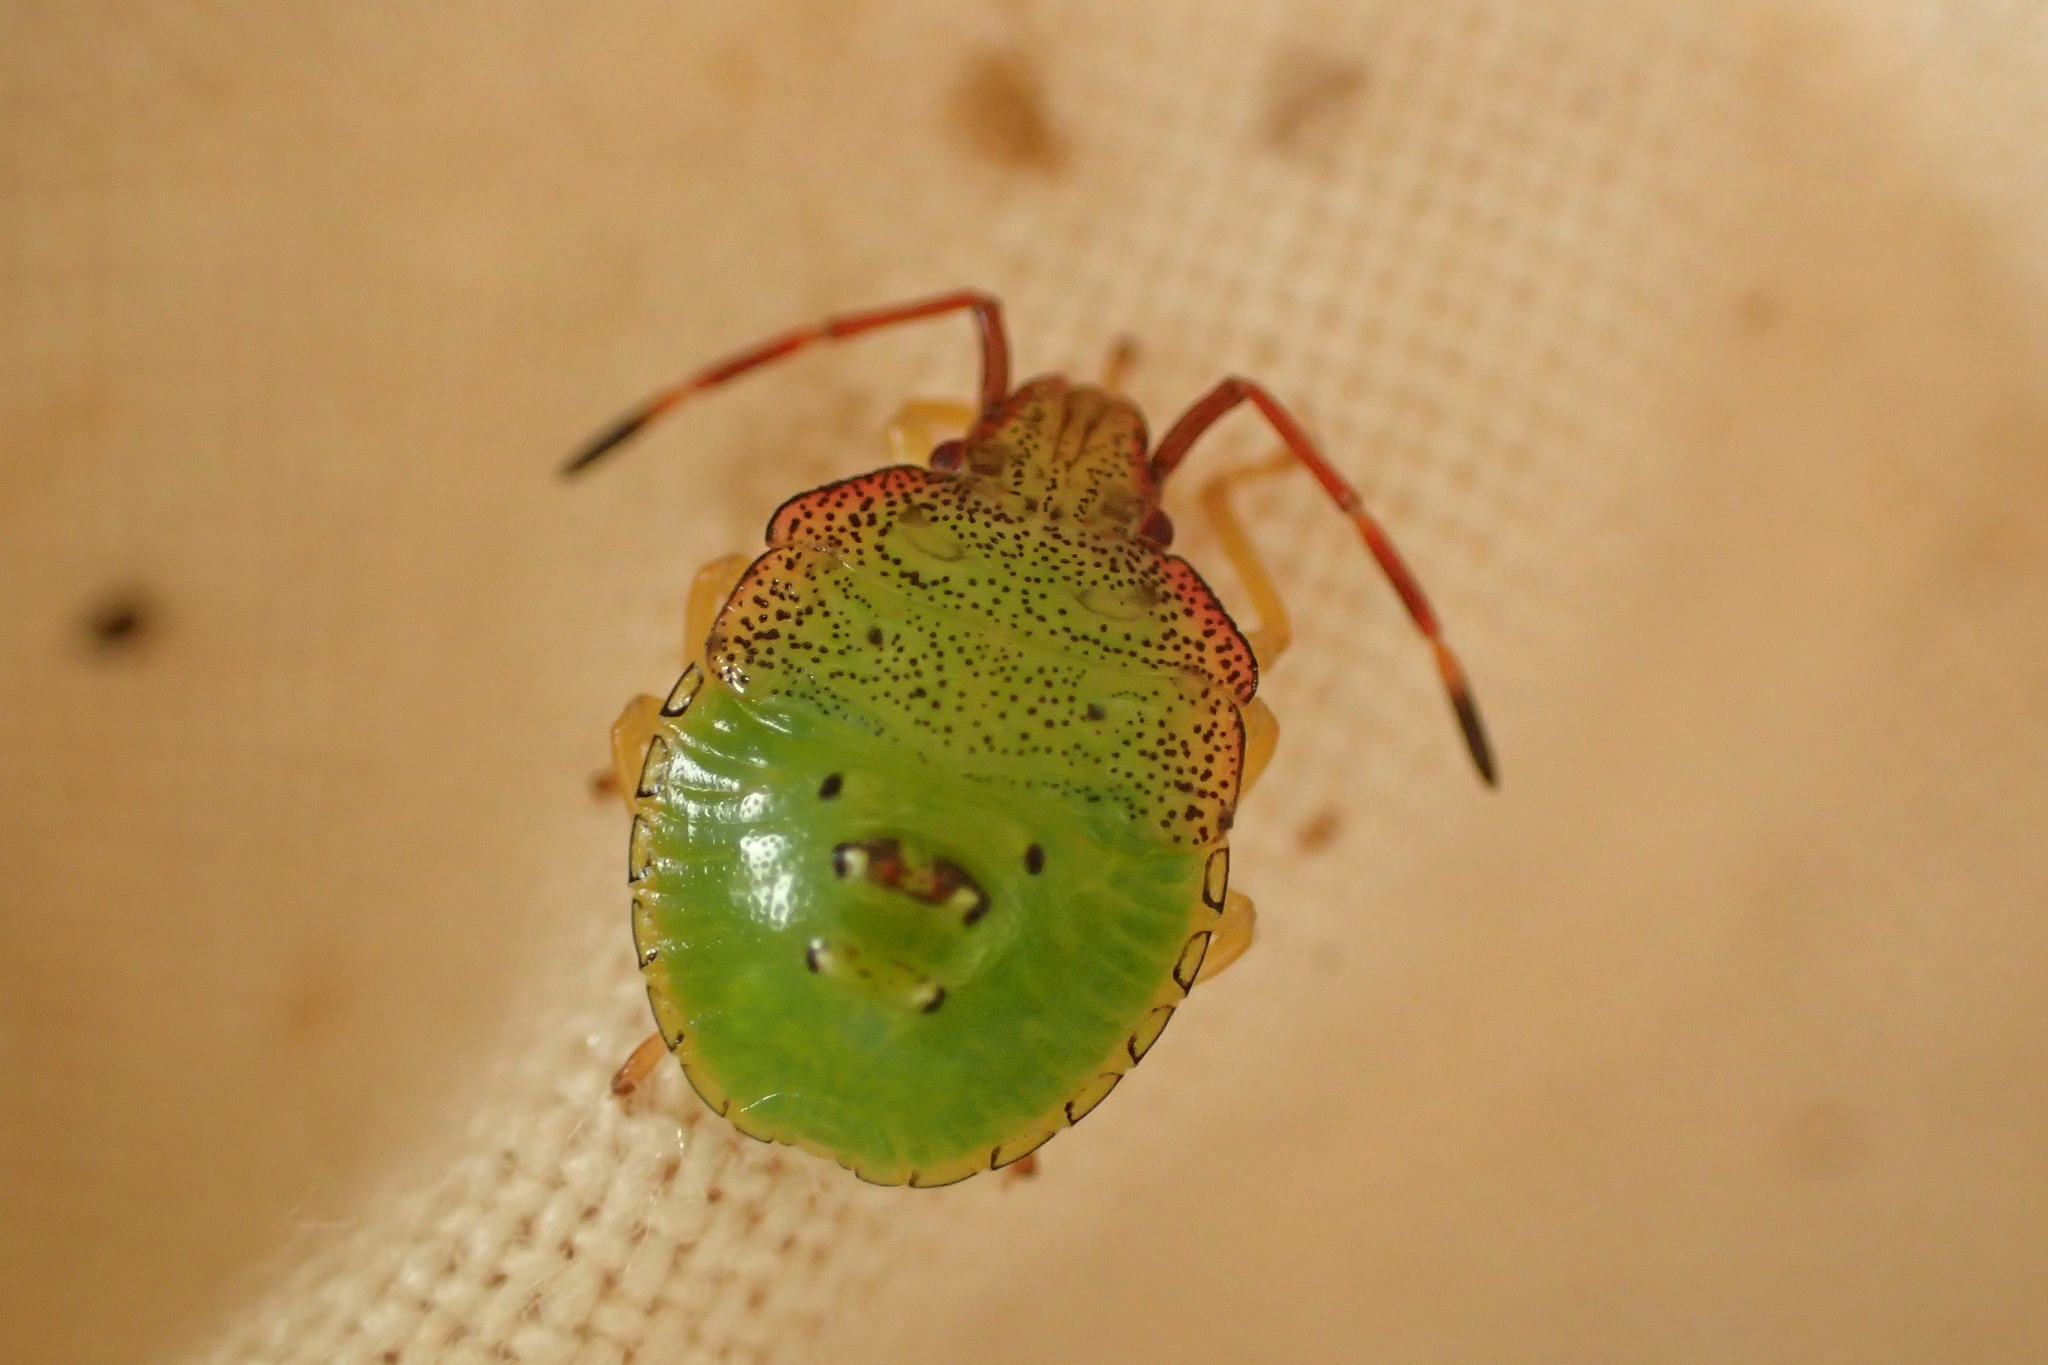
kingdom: Animalia
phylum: Arthropoda
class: Insecta
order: Hemiptera
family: Acanthosomatidae
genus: Acanthosoma
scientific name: Acanthosoma haemorrhoidale
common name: Hawthorn shieldbug
